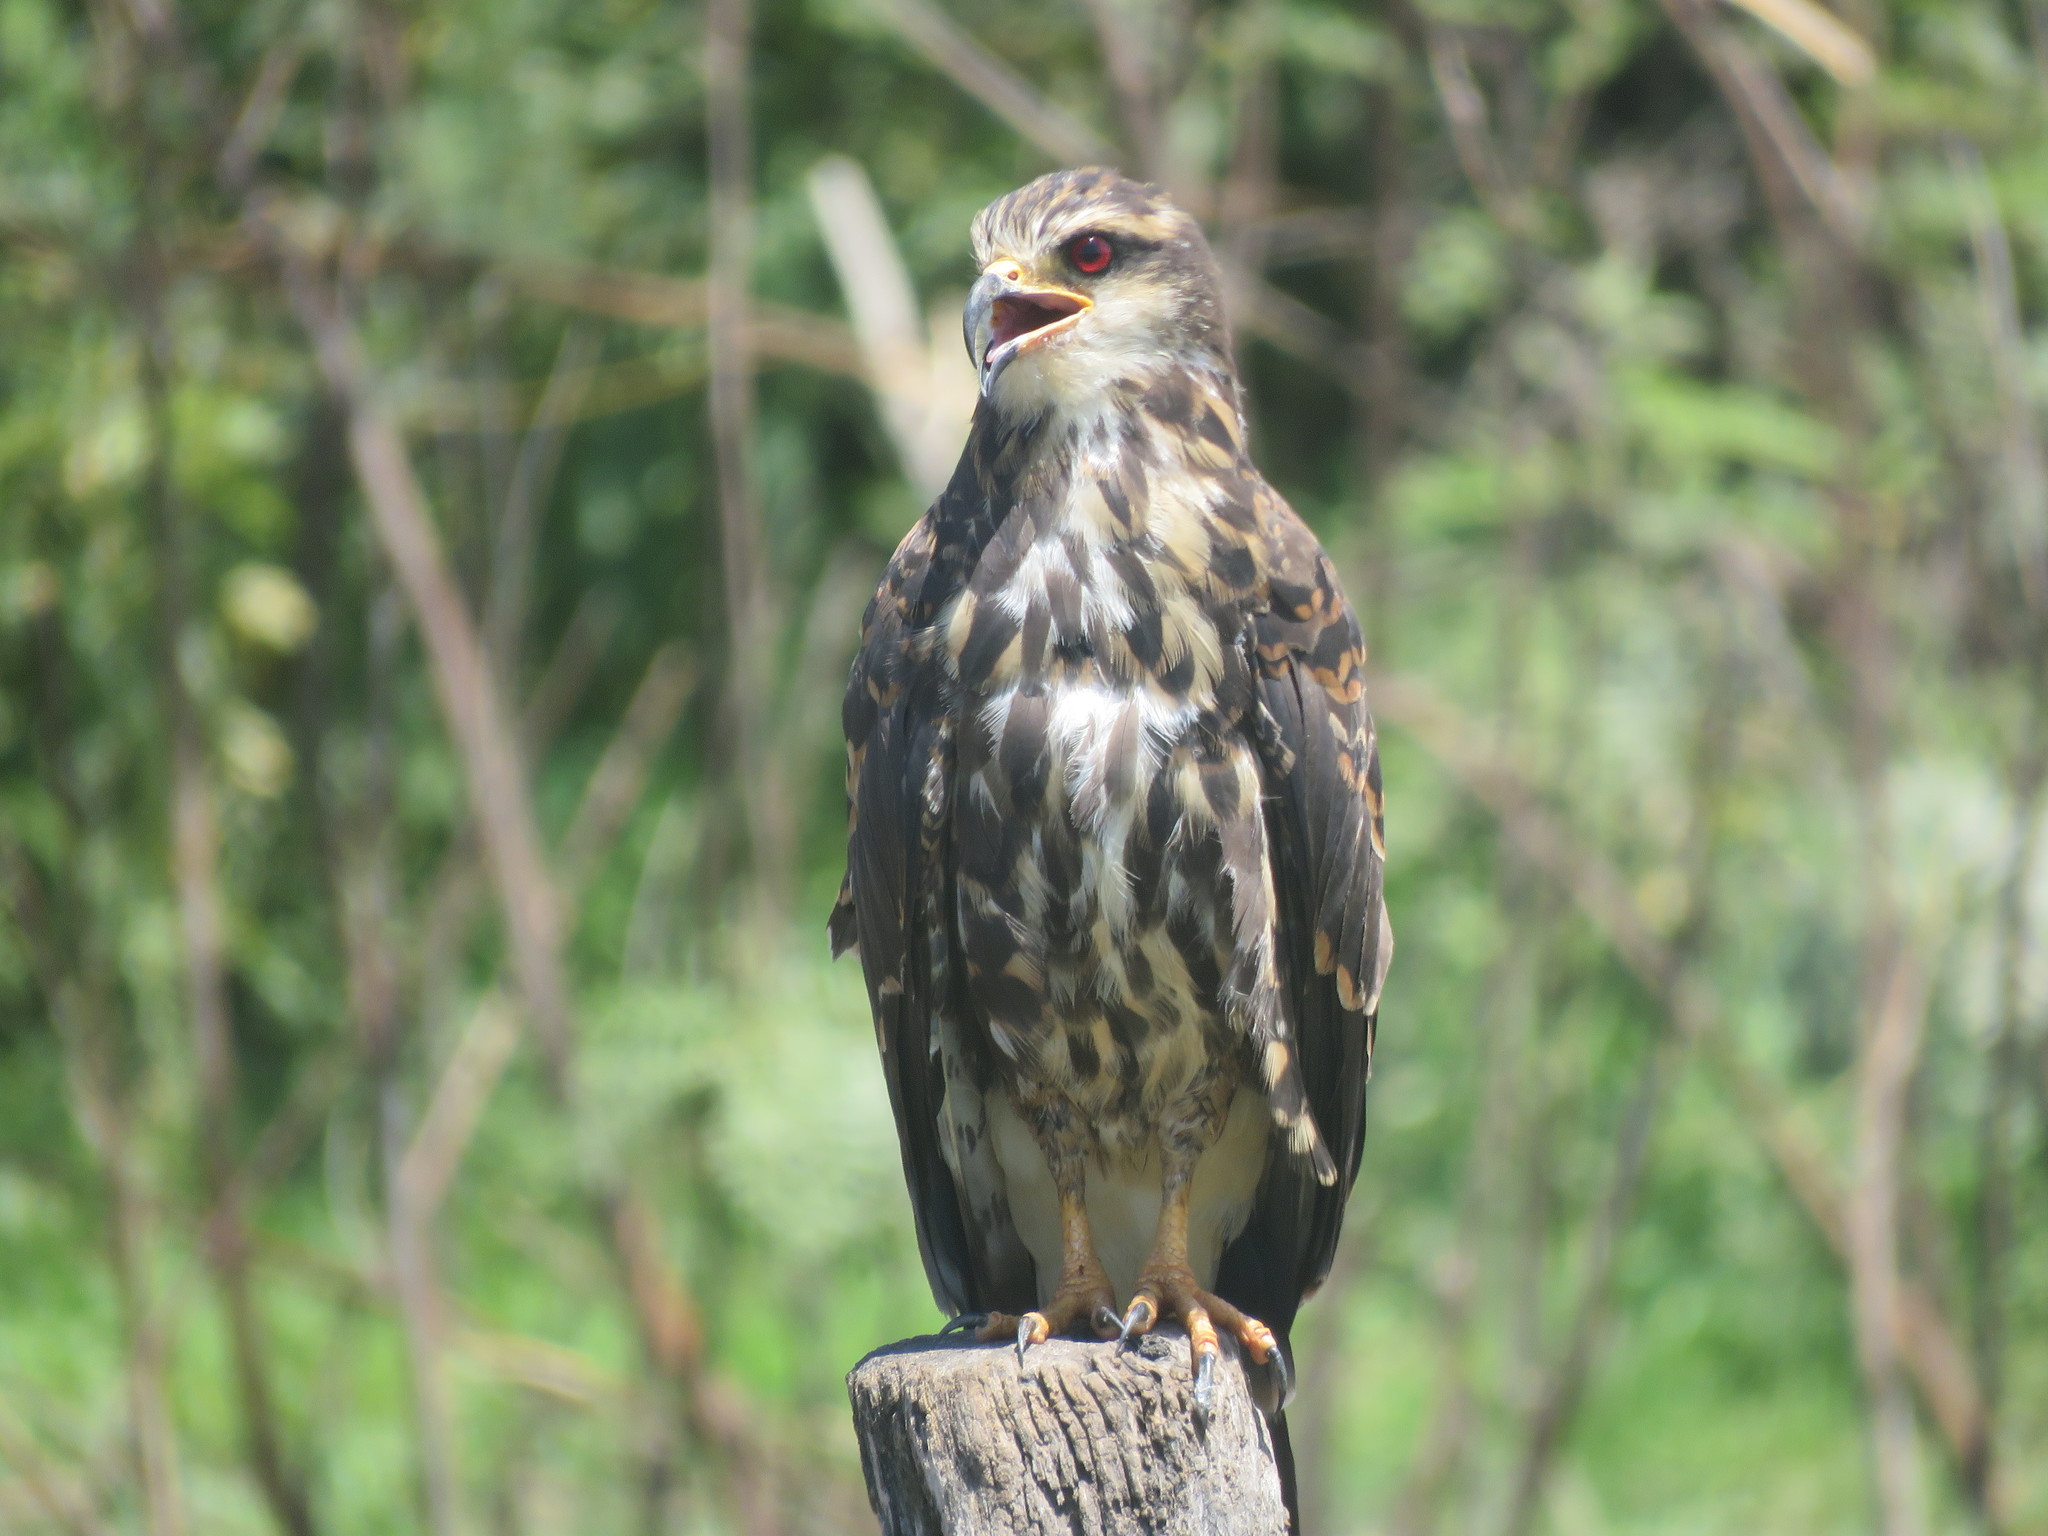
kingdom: Animalia
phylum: Chordata
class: Aves
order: Accipitriformes
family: Accipitridae
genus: Rostrhamus
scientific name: Rostrhamus sociabilis
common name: Snail kite
